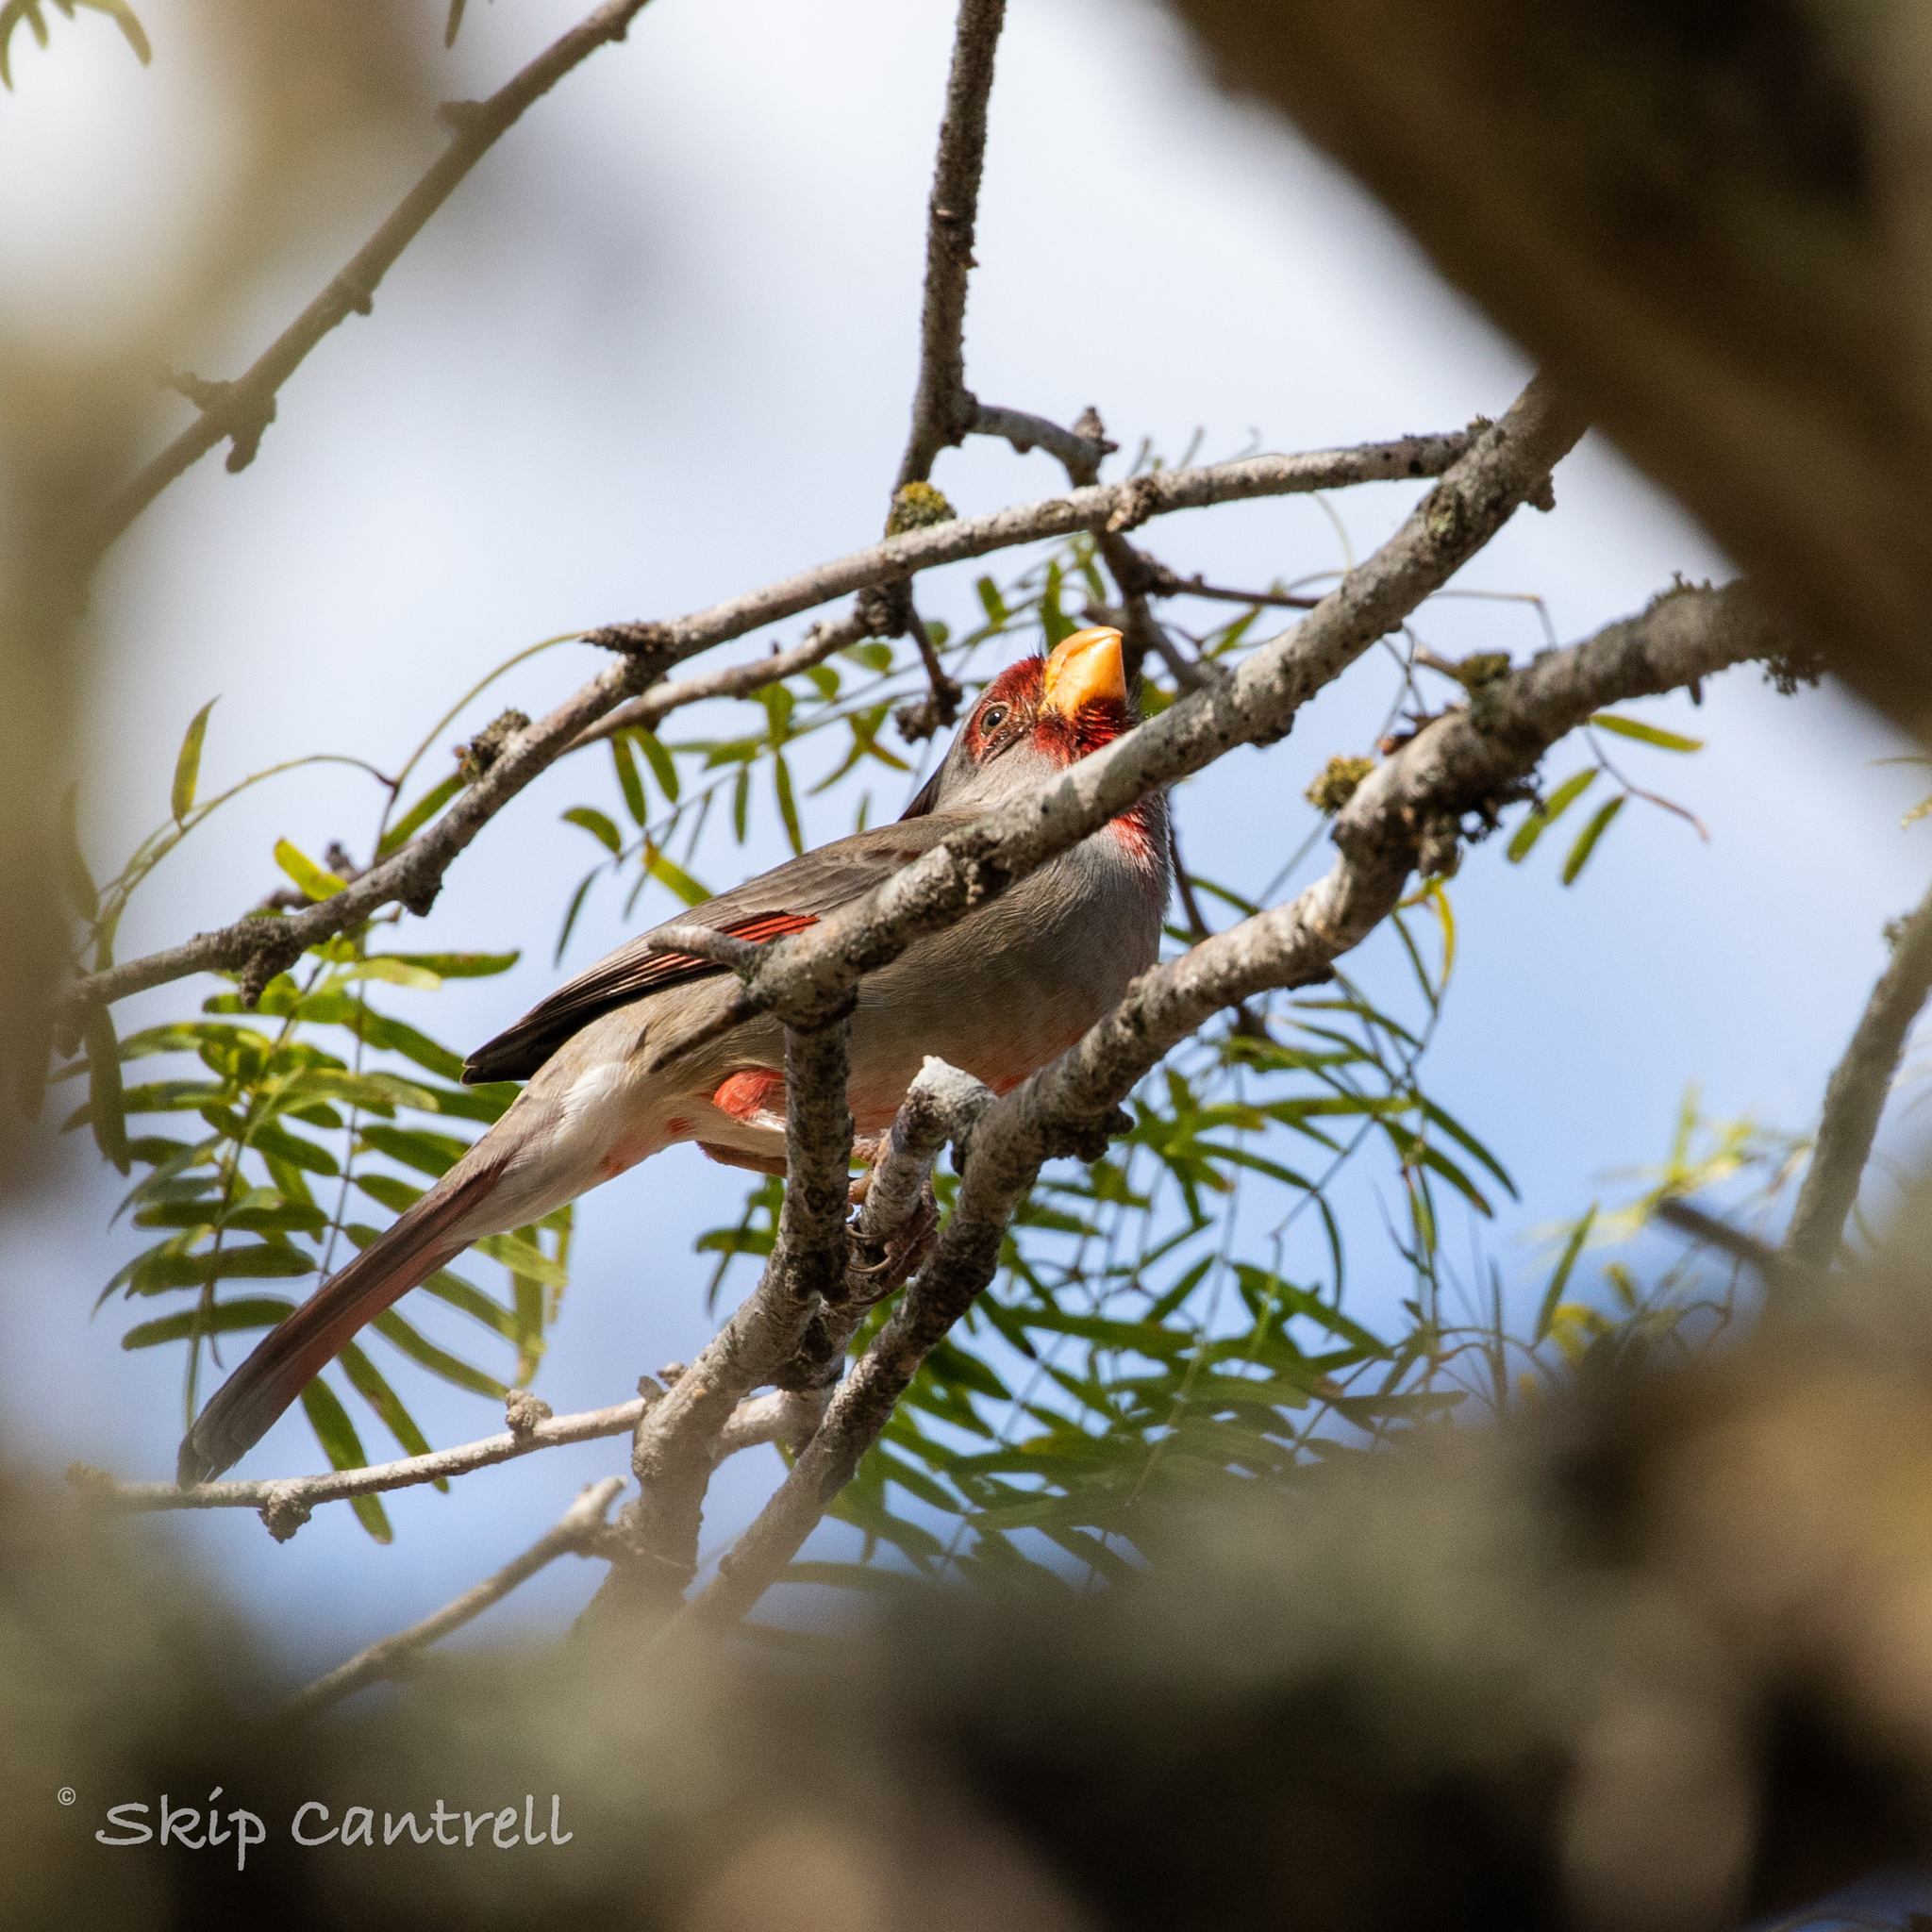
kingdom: Animalia
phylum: Chordata
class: Aves
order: Passeriformes
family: Cardinalidae
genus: Cardinalis
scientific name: Cardinalis sinuatus
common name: Pyrrhuloxia
